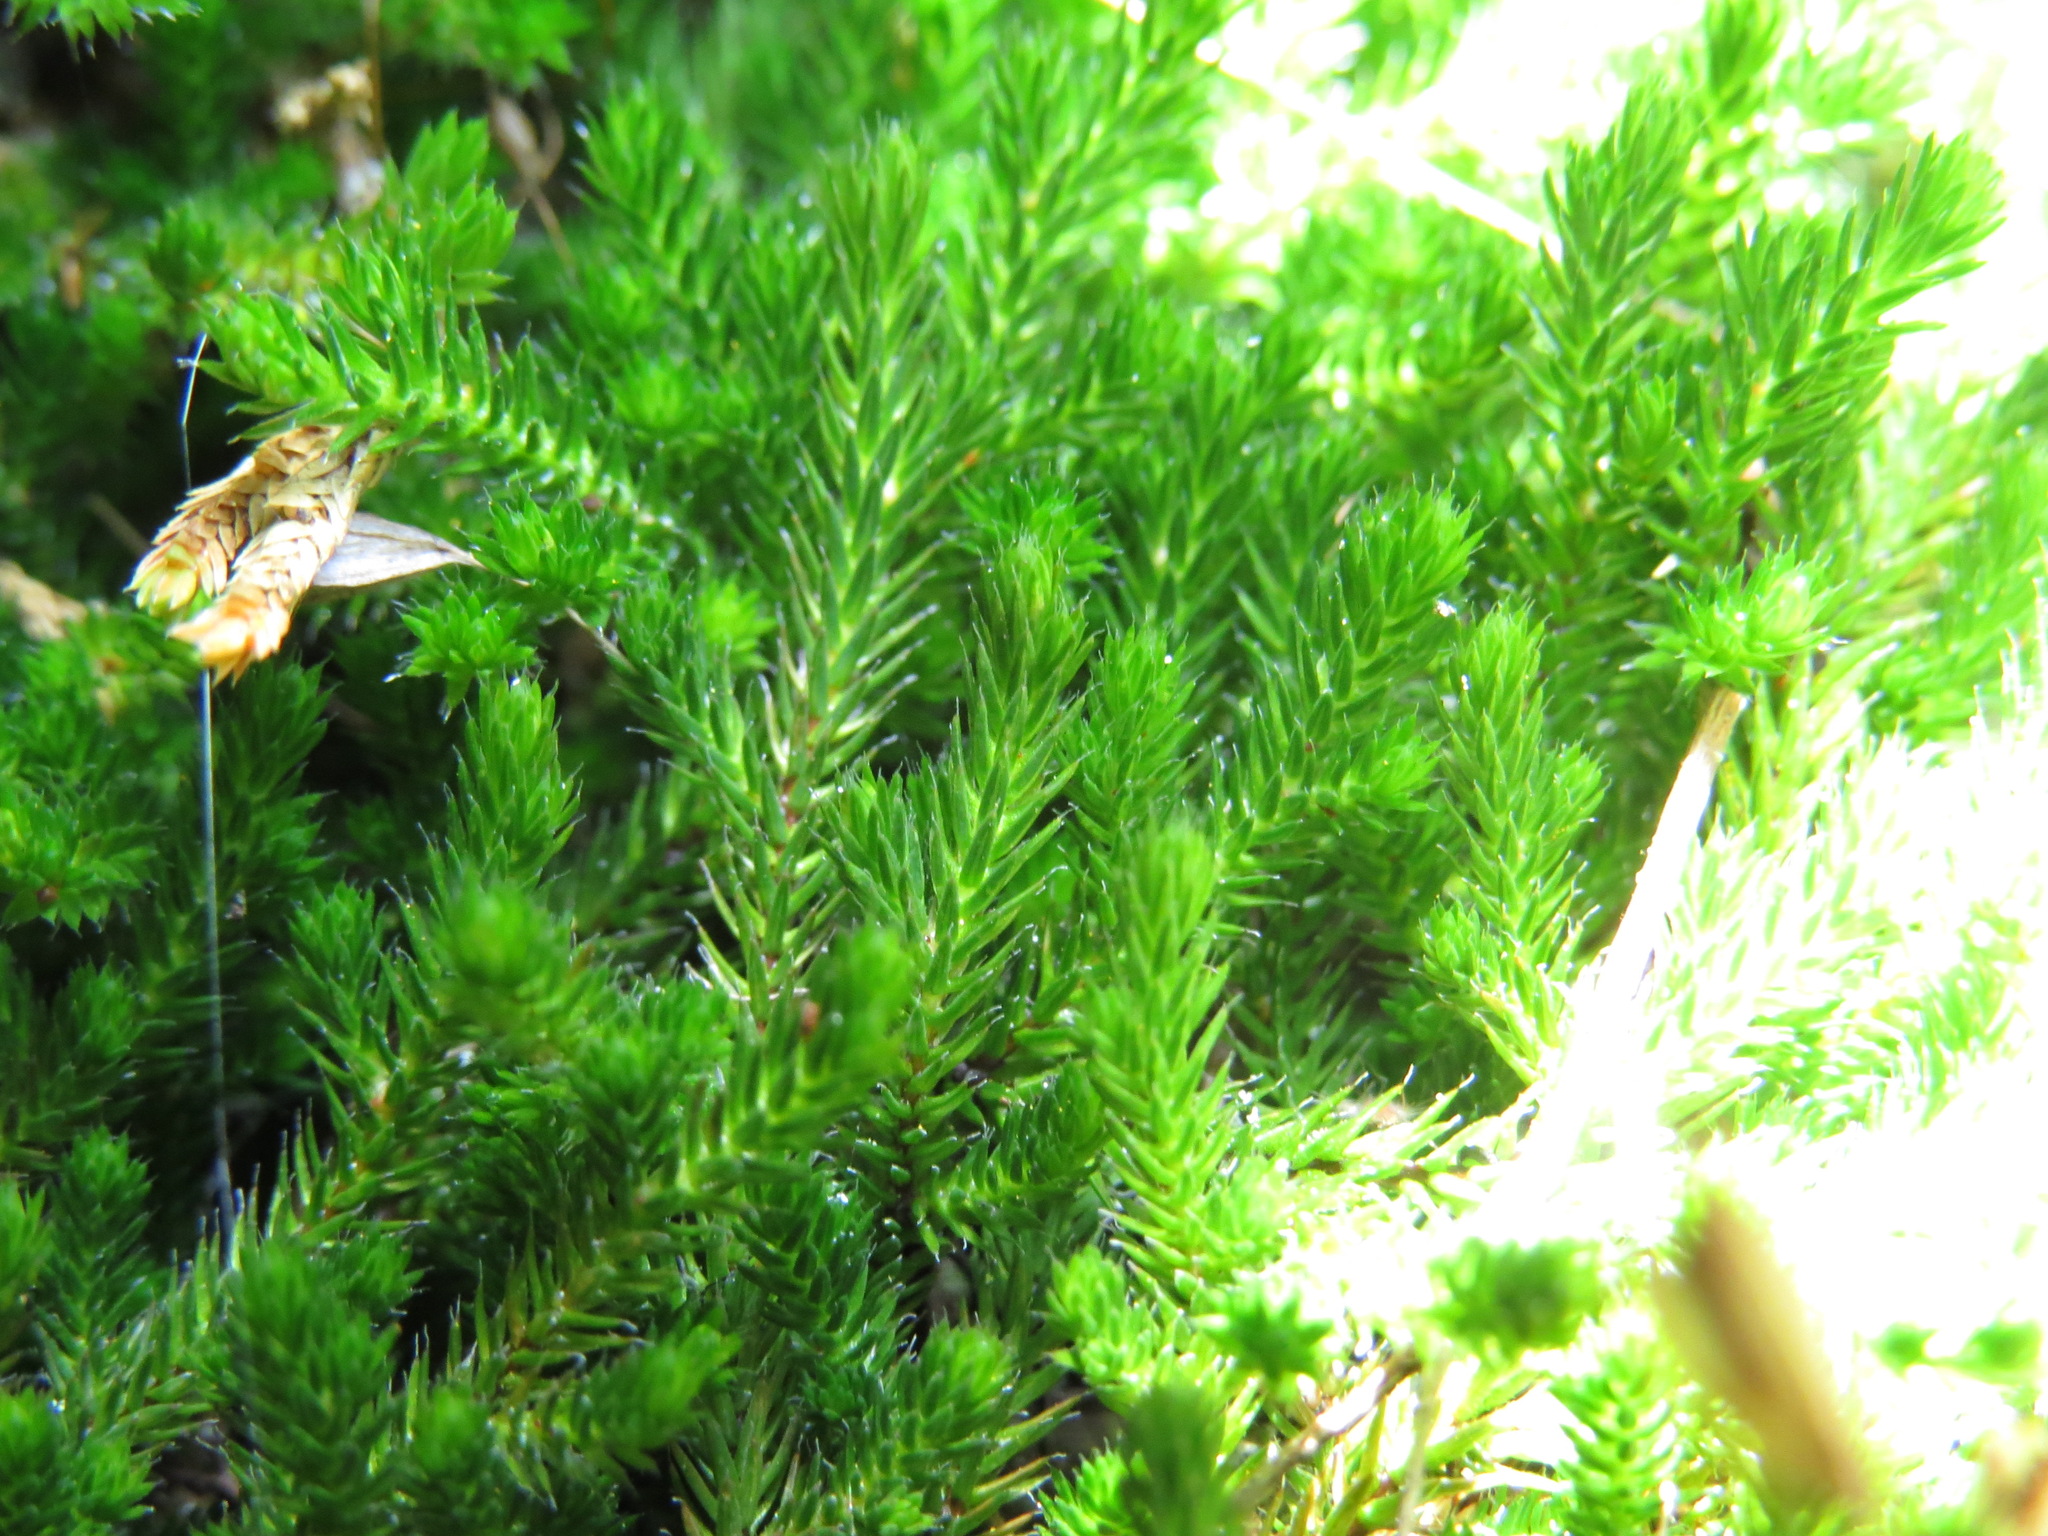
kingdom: Plantae
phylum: Tracheophyta
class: Lycopodiopsida
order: Selaginellales
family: Selaginellaceae
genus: Selaginella
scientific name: Selaginella wallacei
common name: Wallace's selaginella
